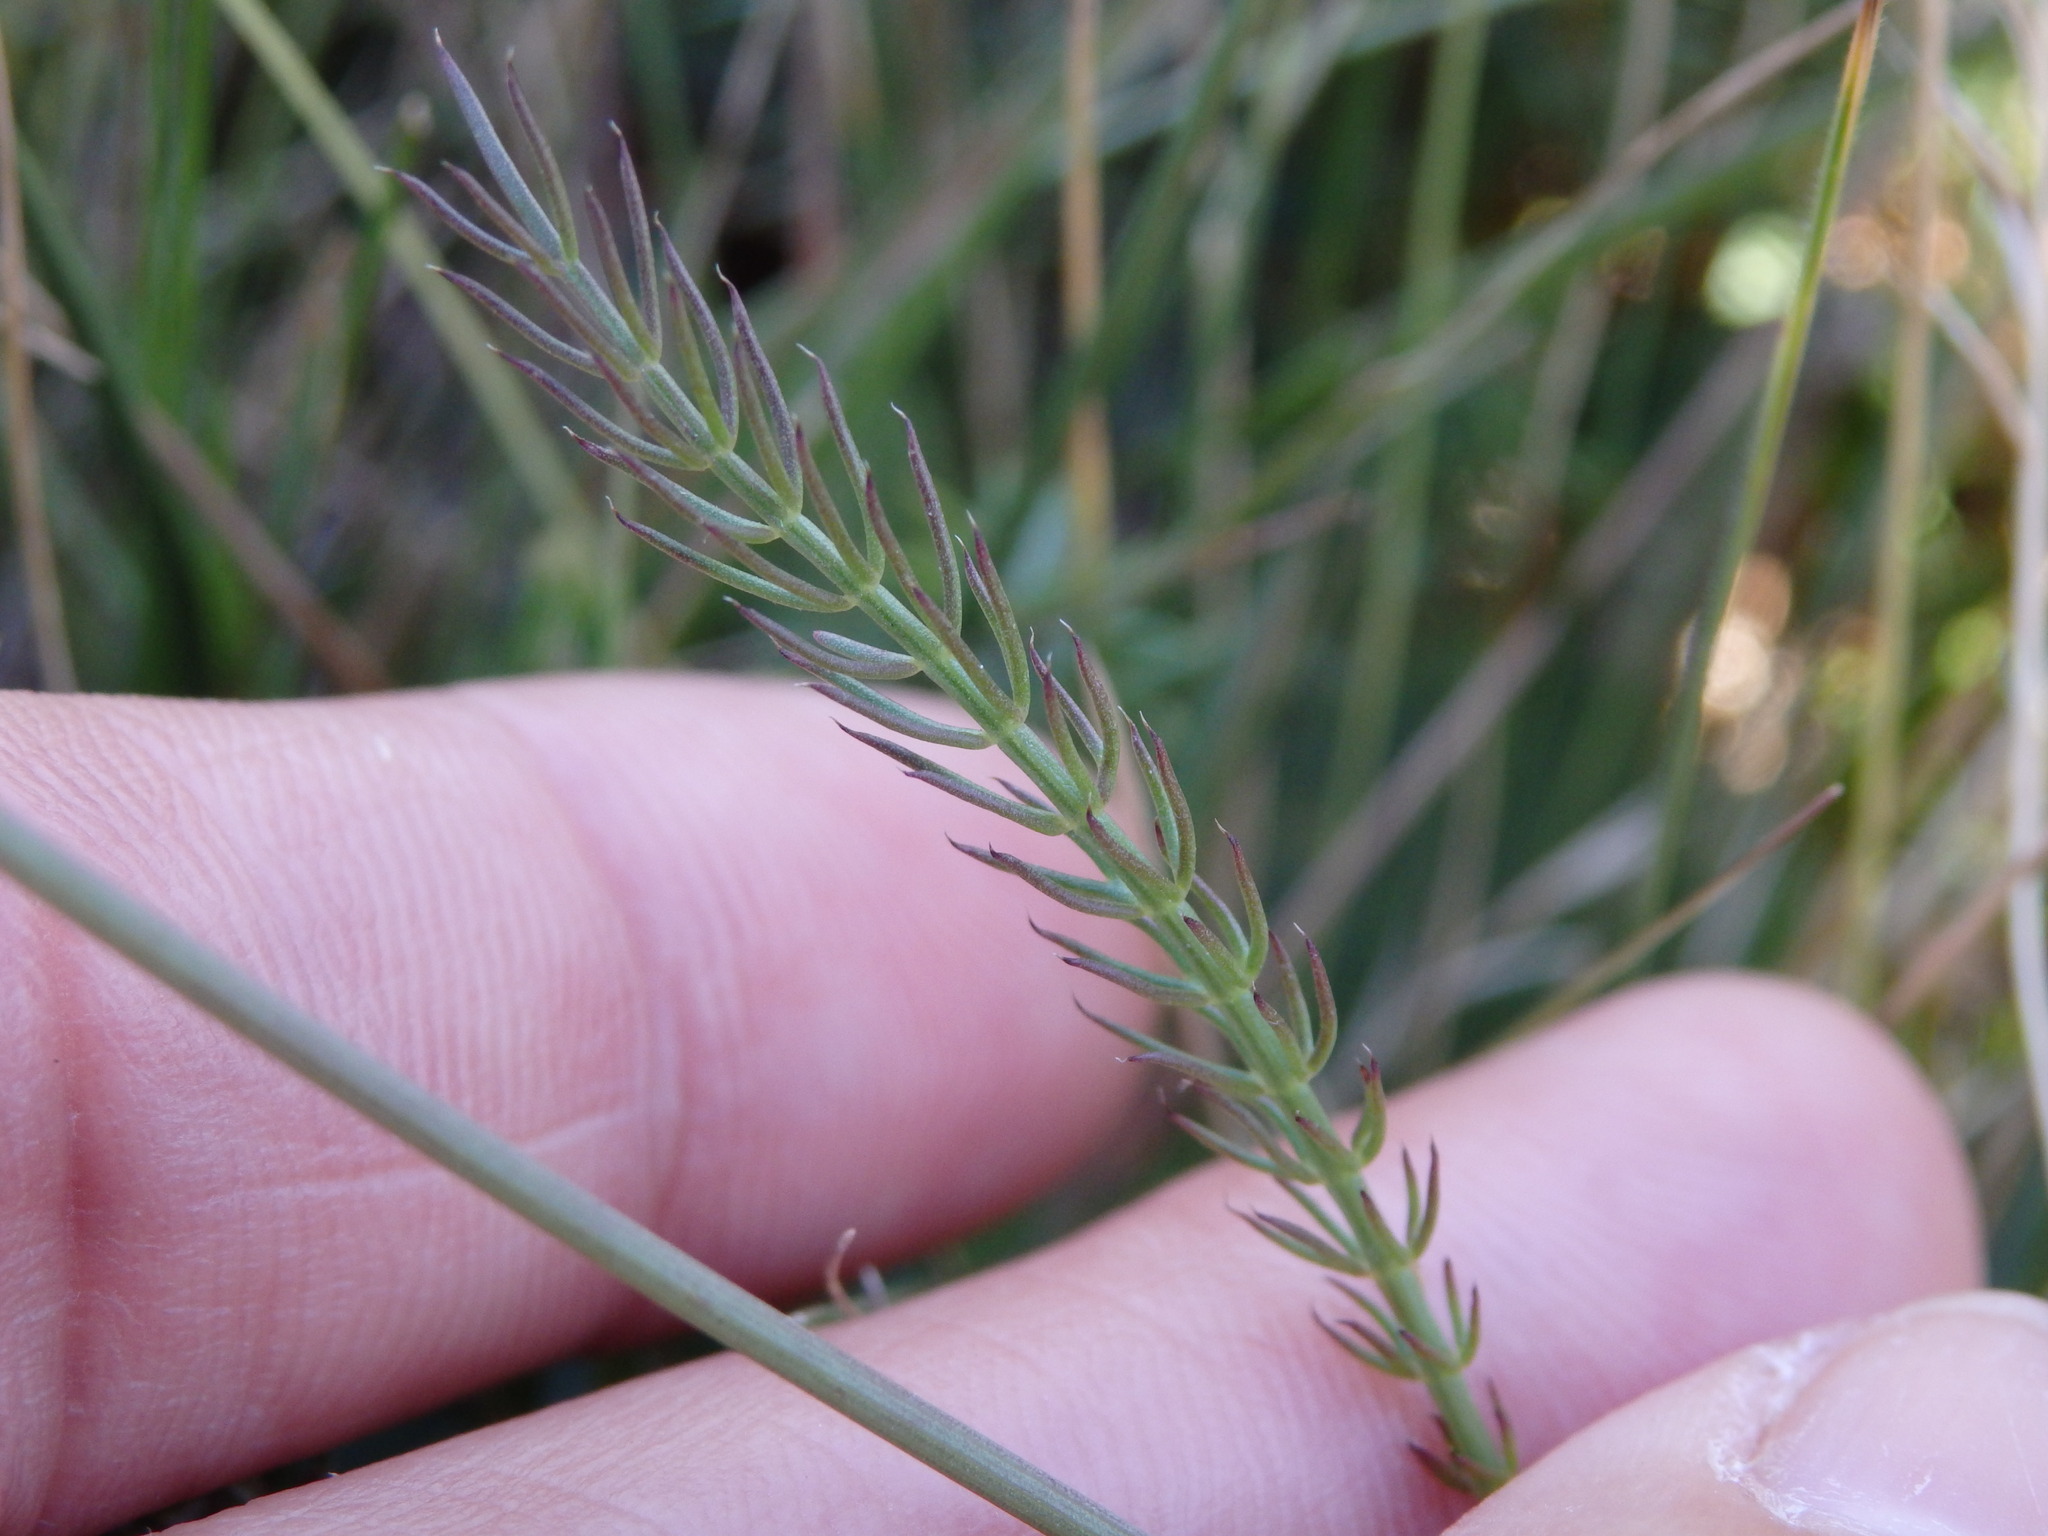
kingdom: Plantae
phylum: Tracheophyta
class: Magnoliopsida
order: Apiales
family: Apiaceae
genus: Trocdaris
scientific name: Trocdaris verticillatum
